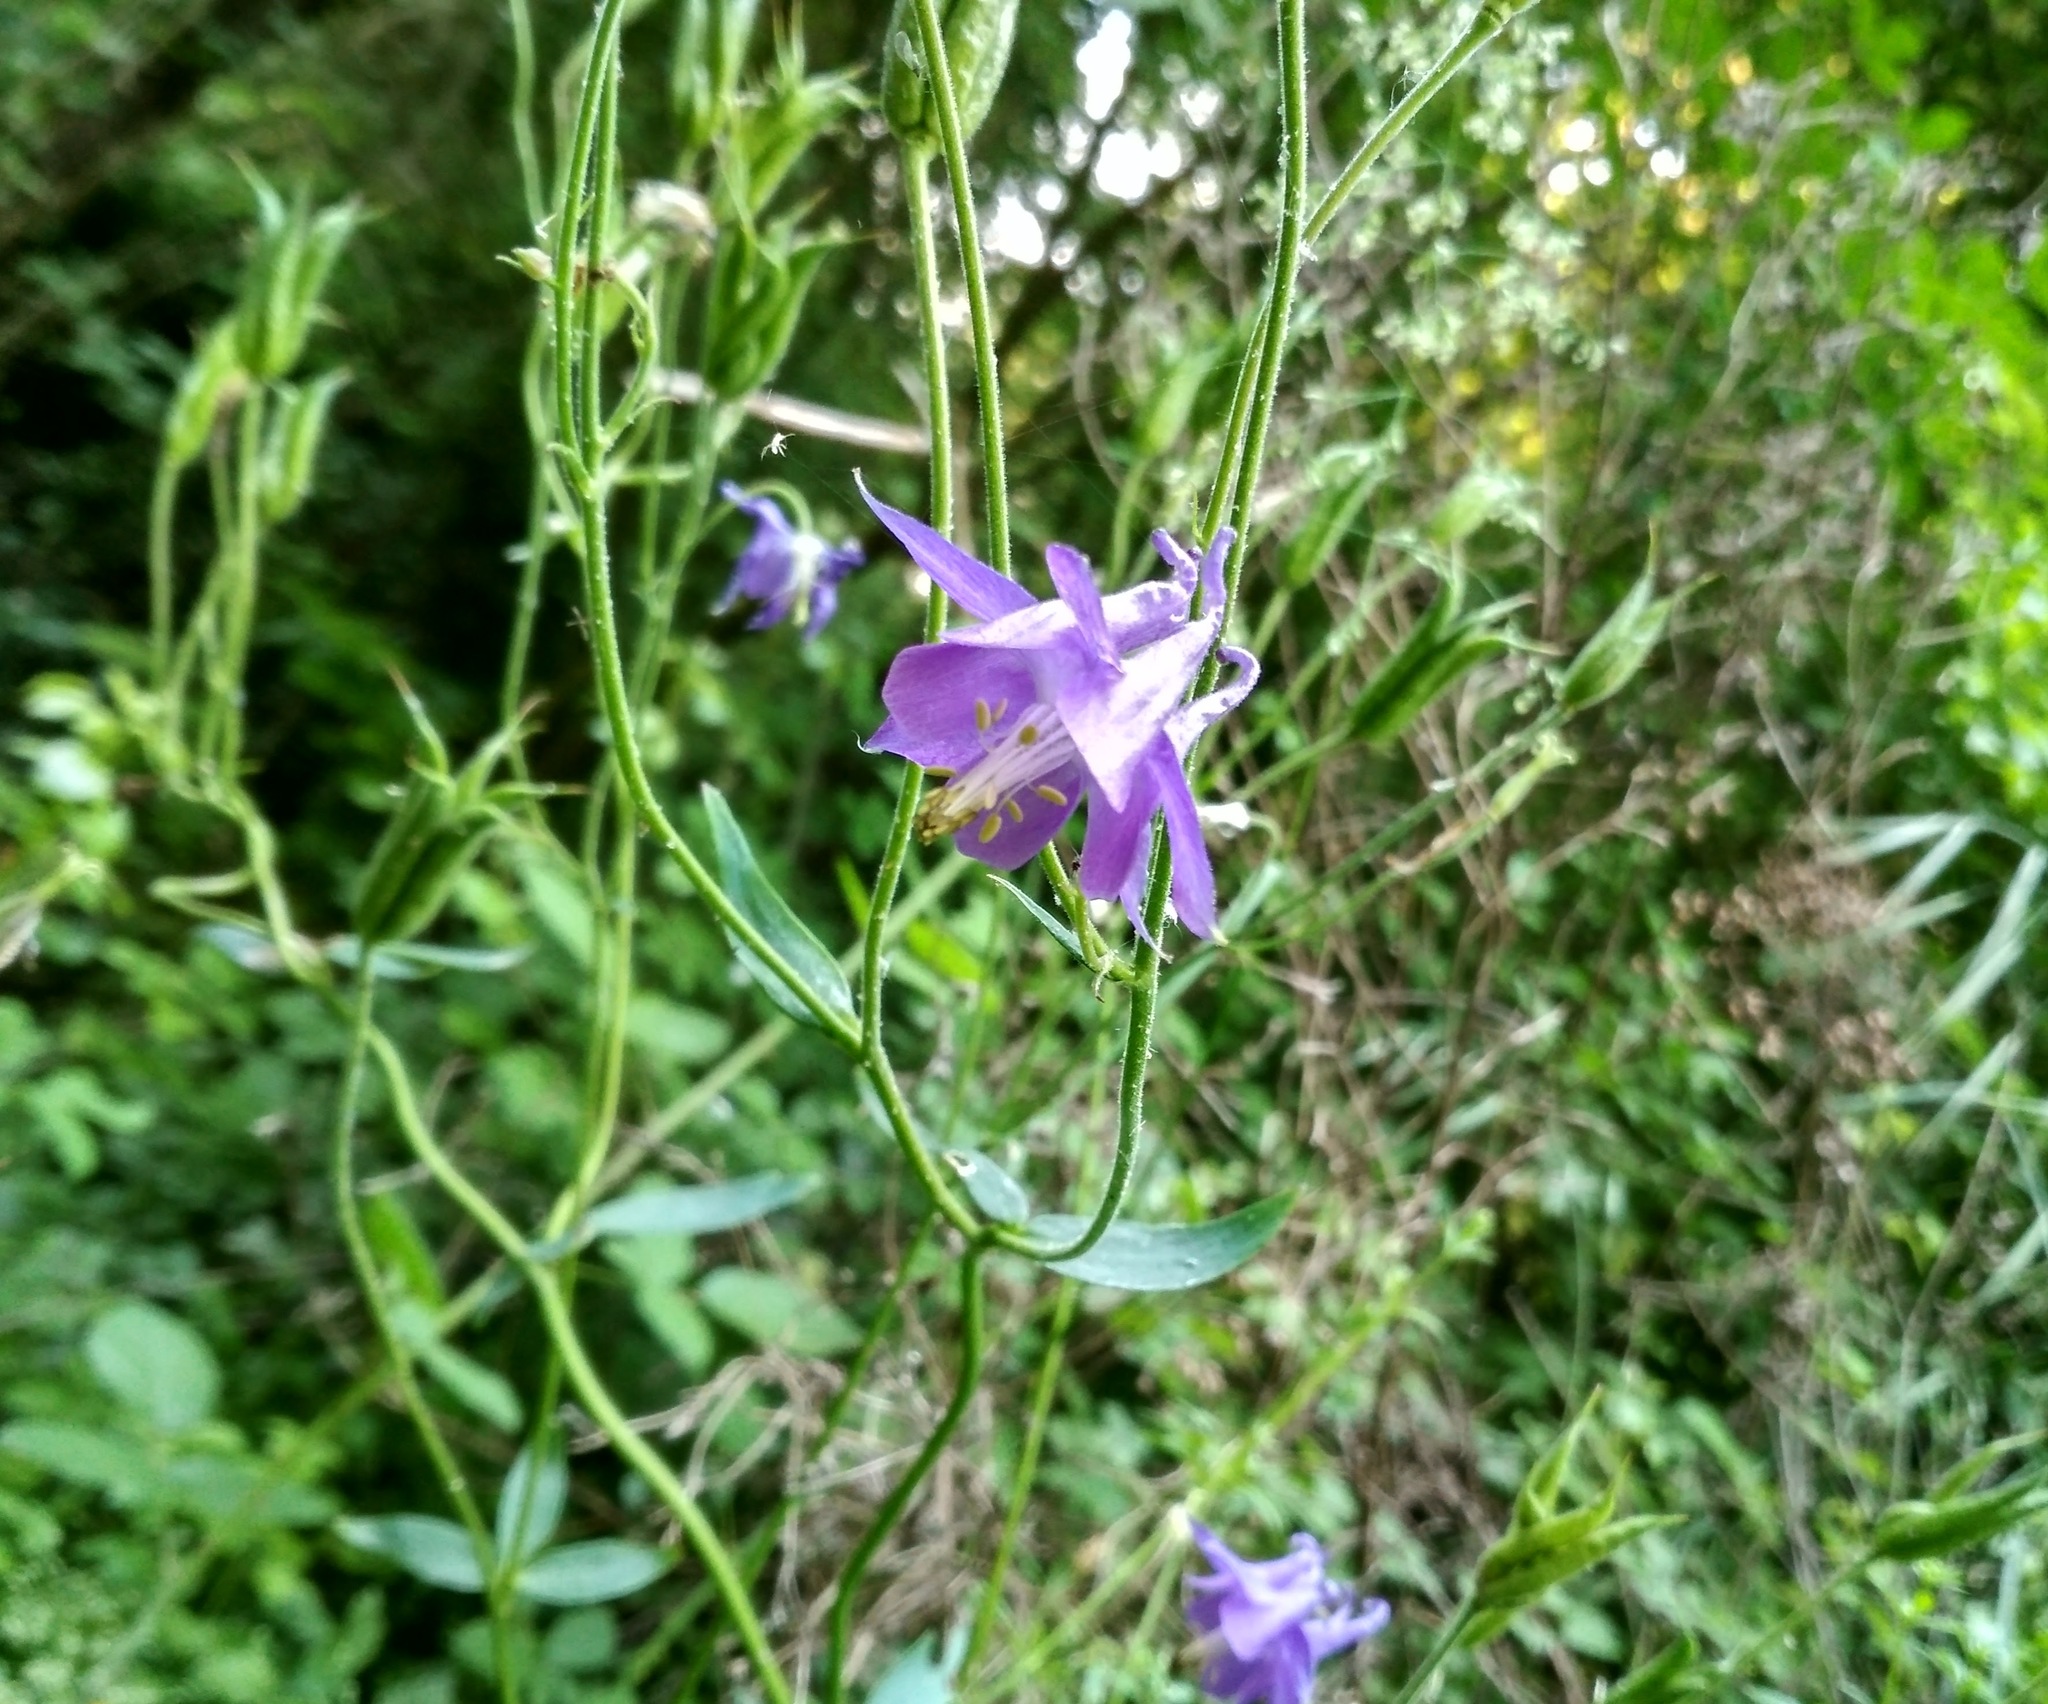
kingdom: Plantae
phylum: Tracheophyta
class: Magnoliopsida
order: Ranunculales
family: Ranunculaceae
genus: Aquilegia
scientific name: Aquilegia vulgaris
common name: Columbine
